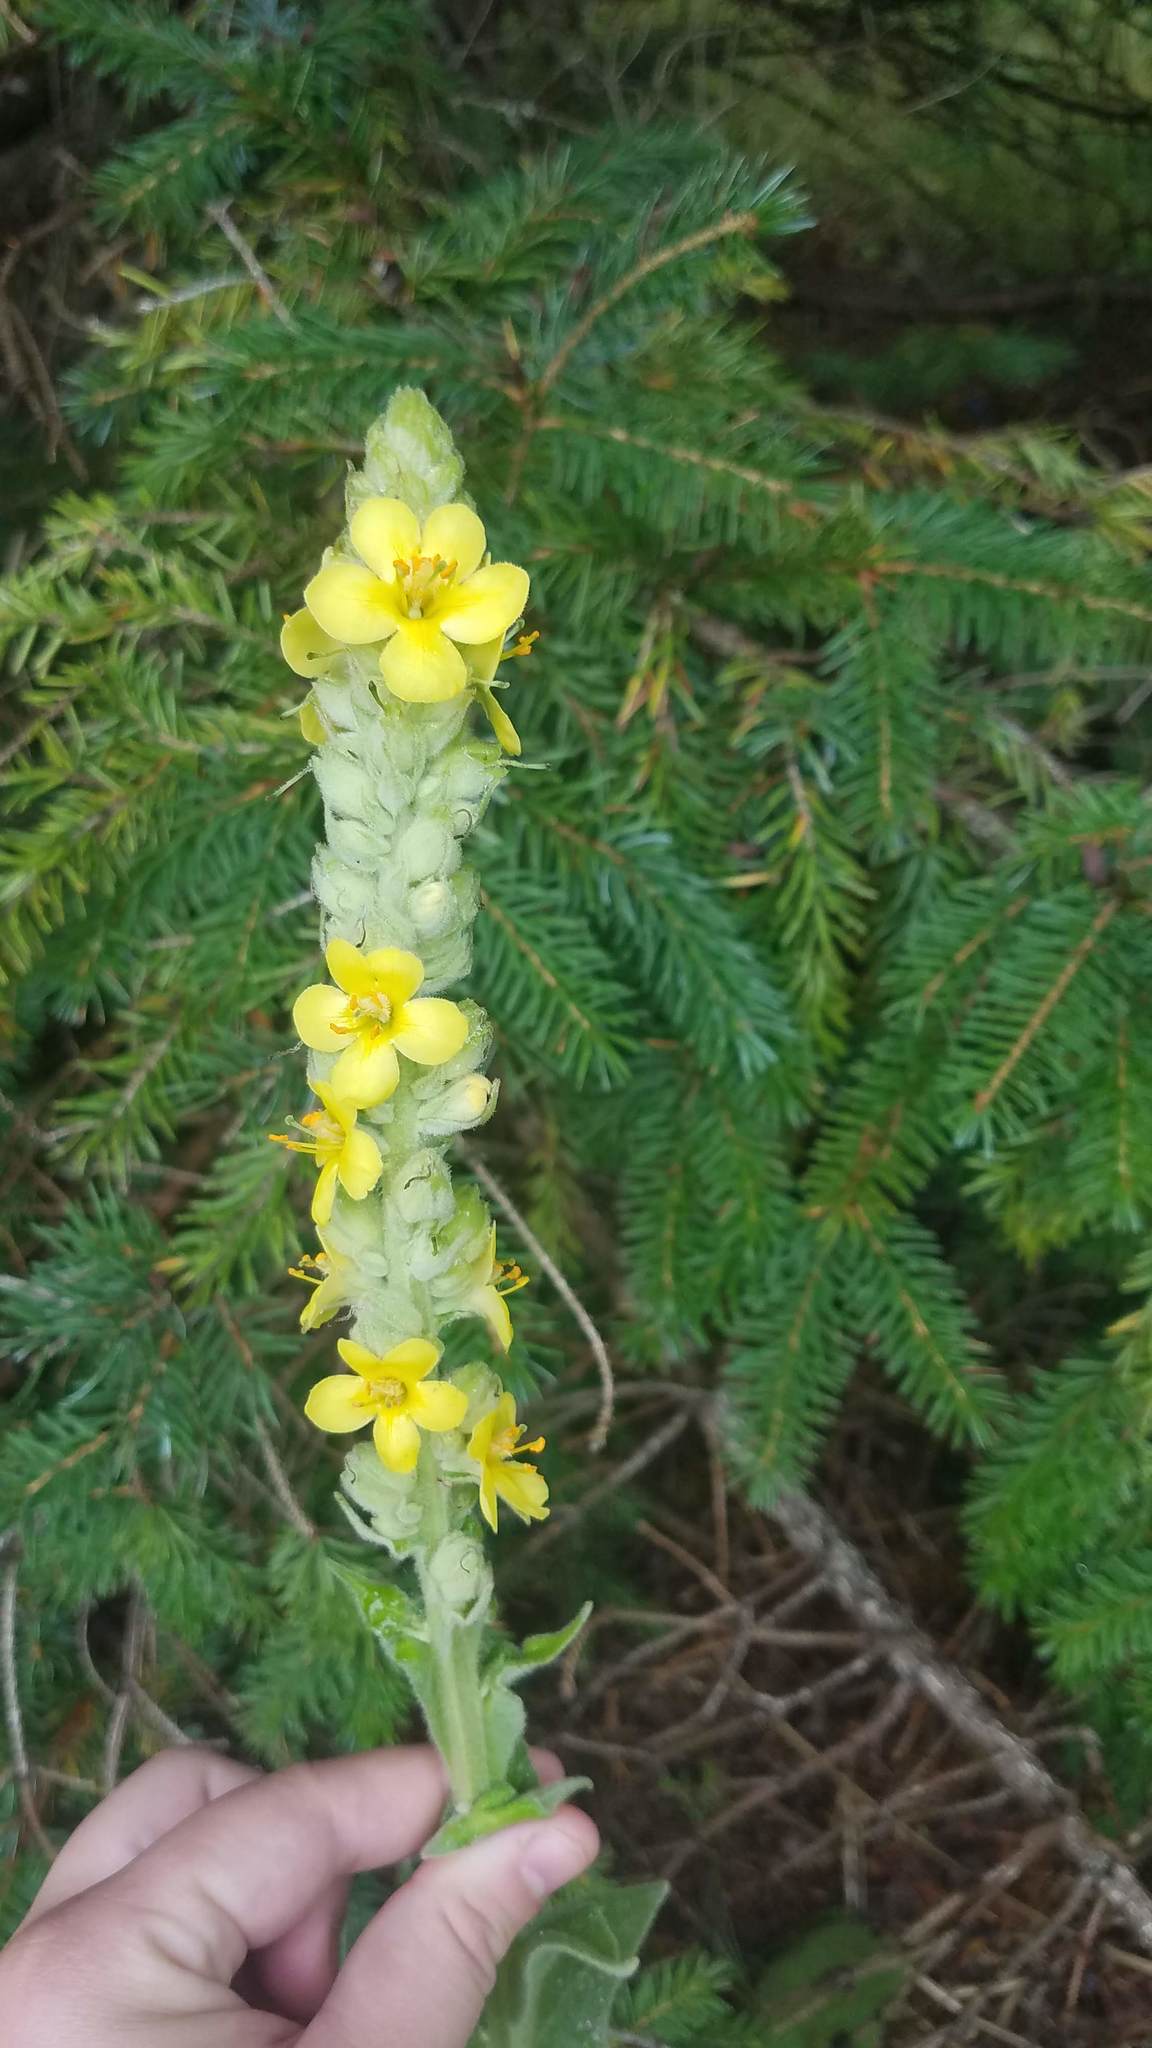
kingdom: Plantae
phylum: Tracheophyta
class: Magnoliopsida
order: Lamiales
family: Scrophulariaceae
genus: Verbascum
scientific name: Verbascum thapsus
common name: Common mullein
